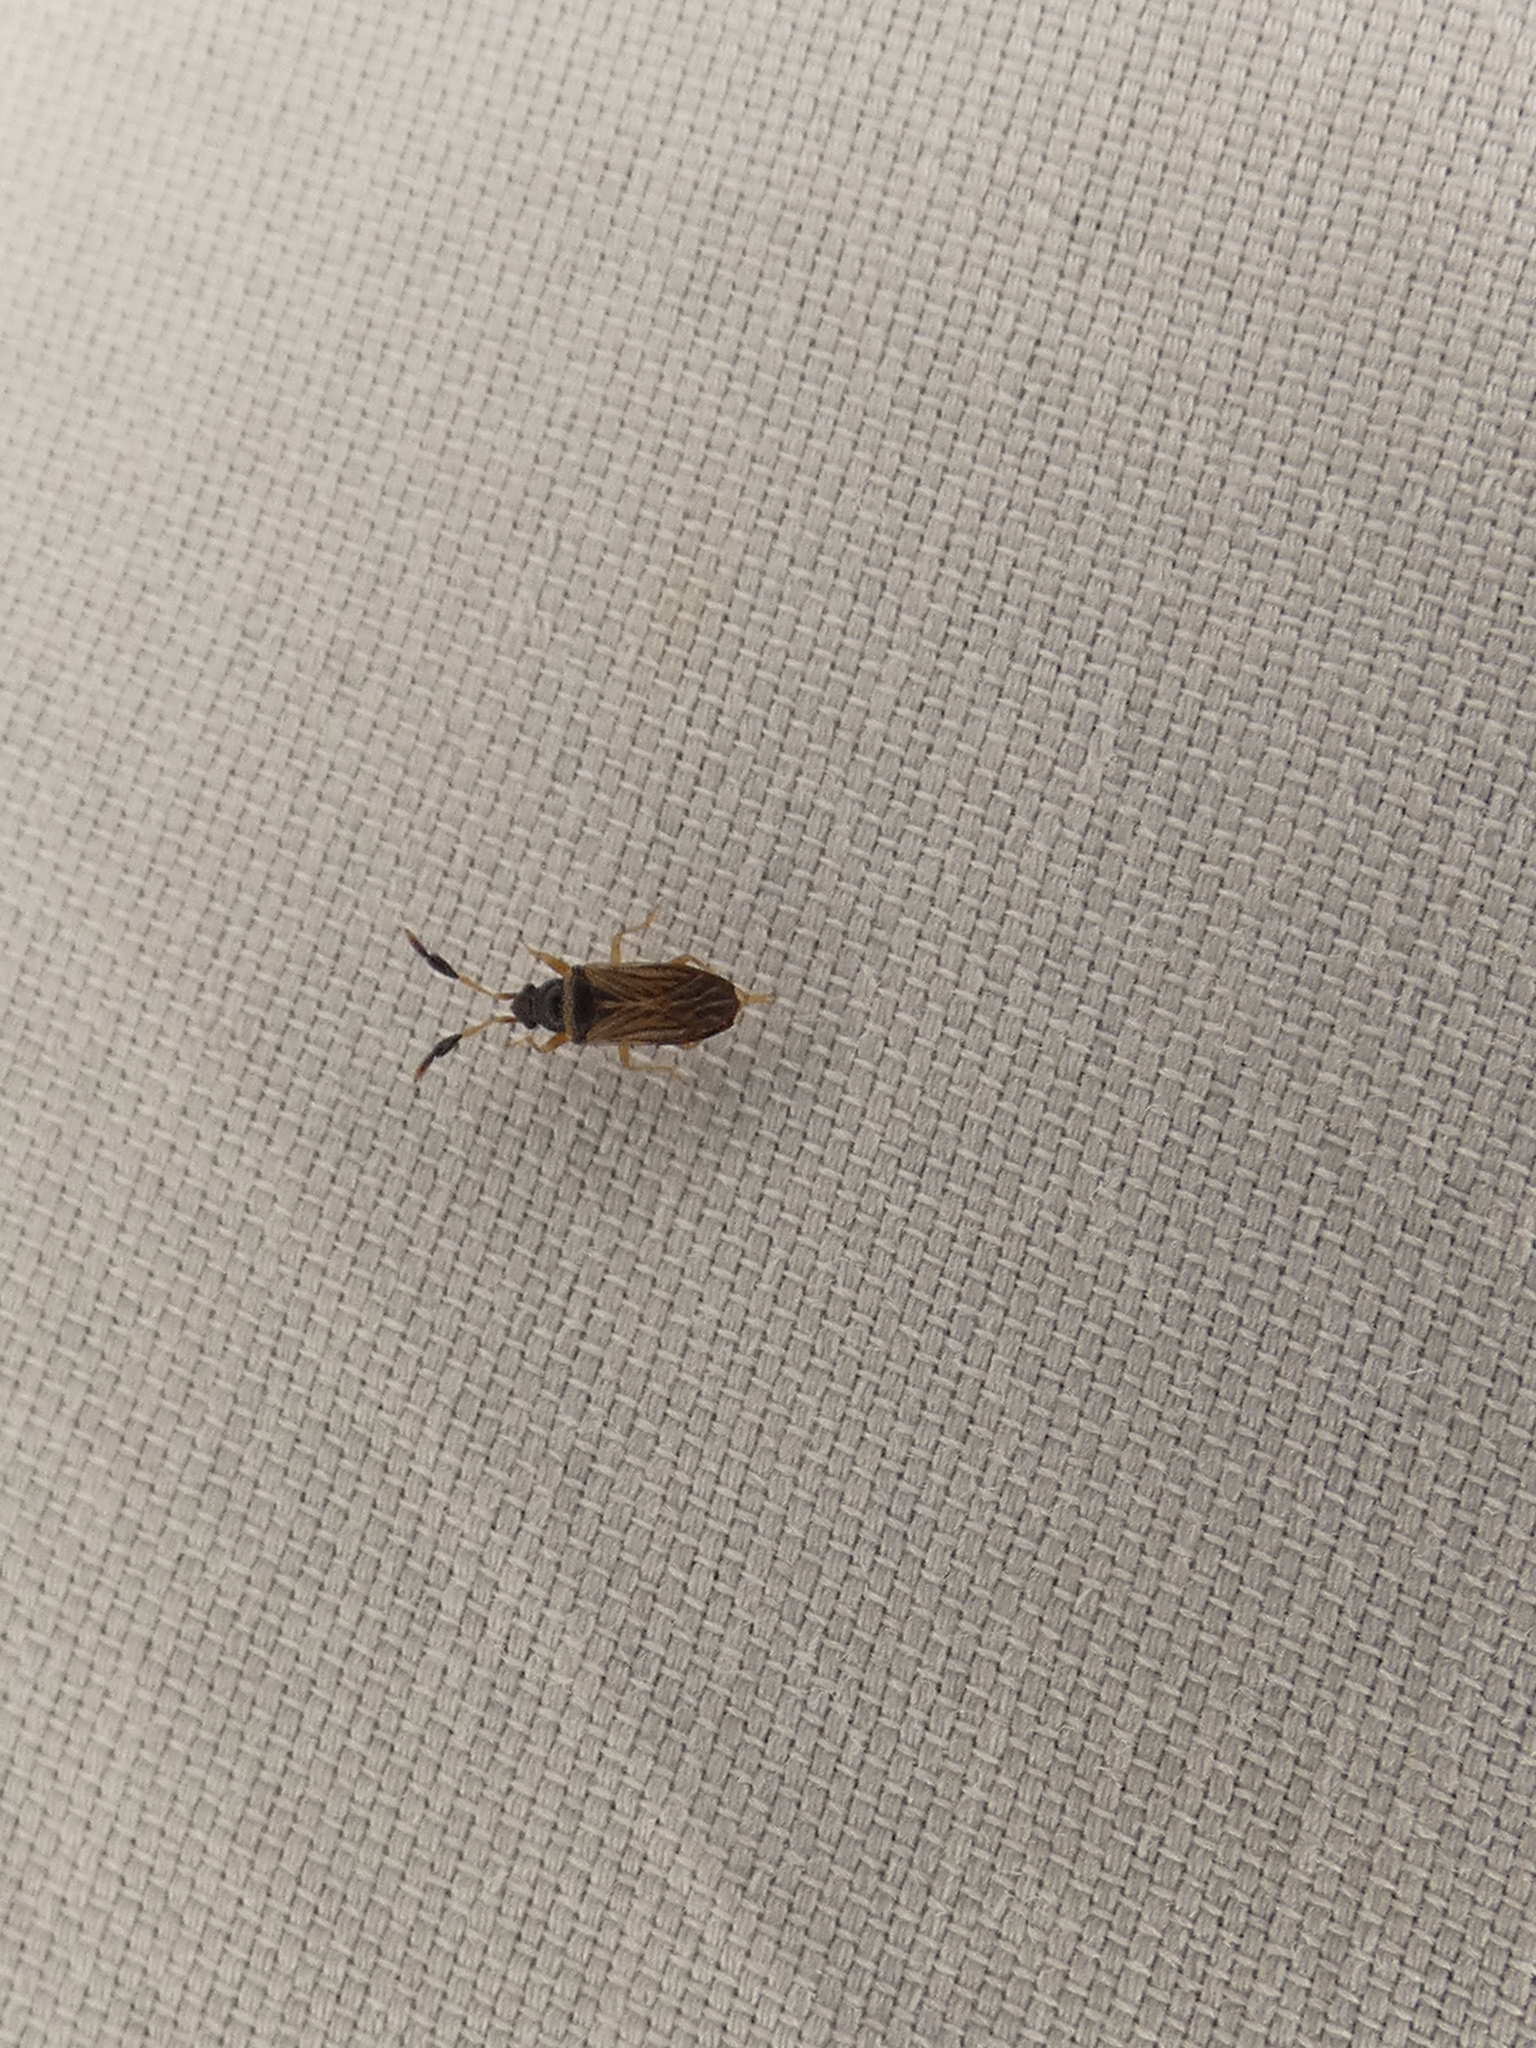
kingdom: Animalia
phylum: Arthropoda
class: Insecta
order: Hemiptera
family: Rhyparochromidae
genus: Ptochiomera
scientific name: Ptochiomera nodosa
